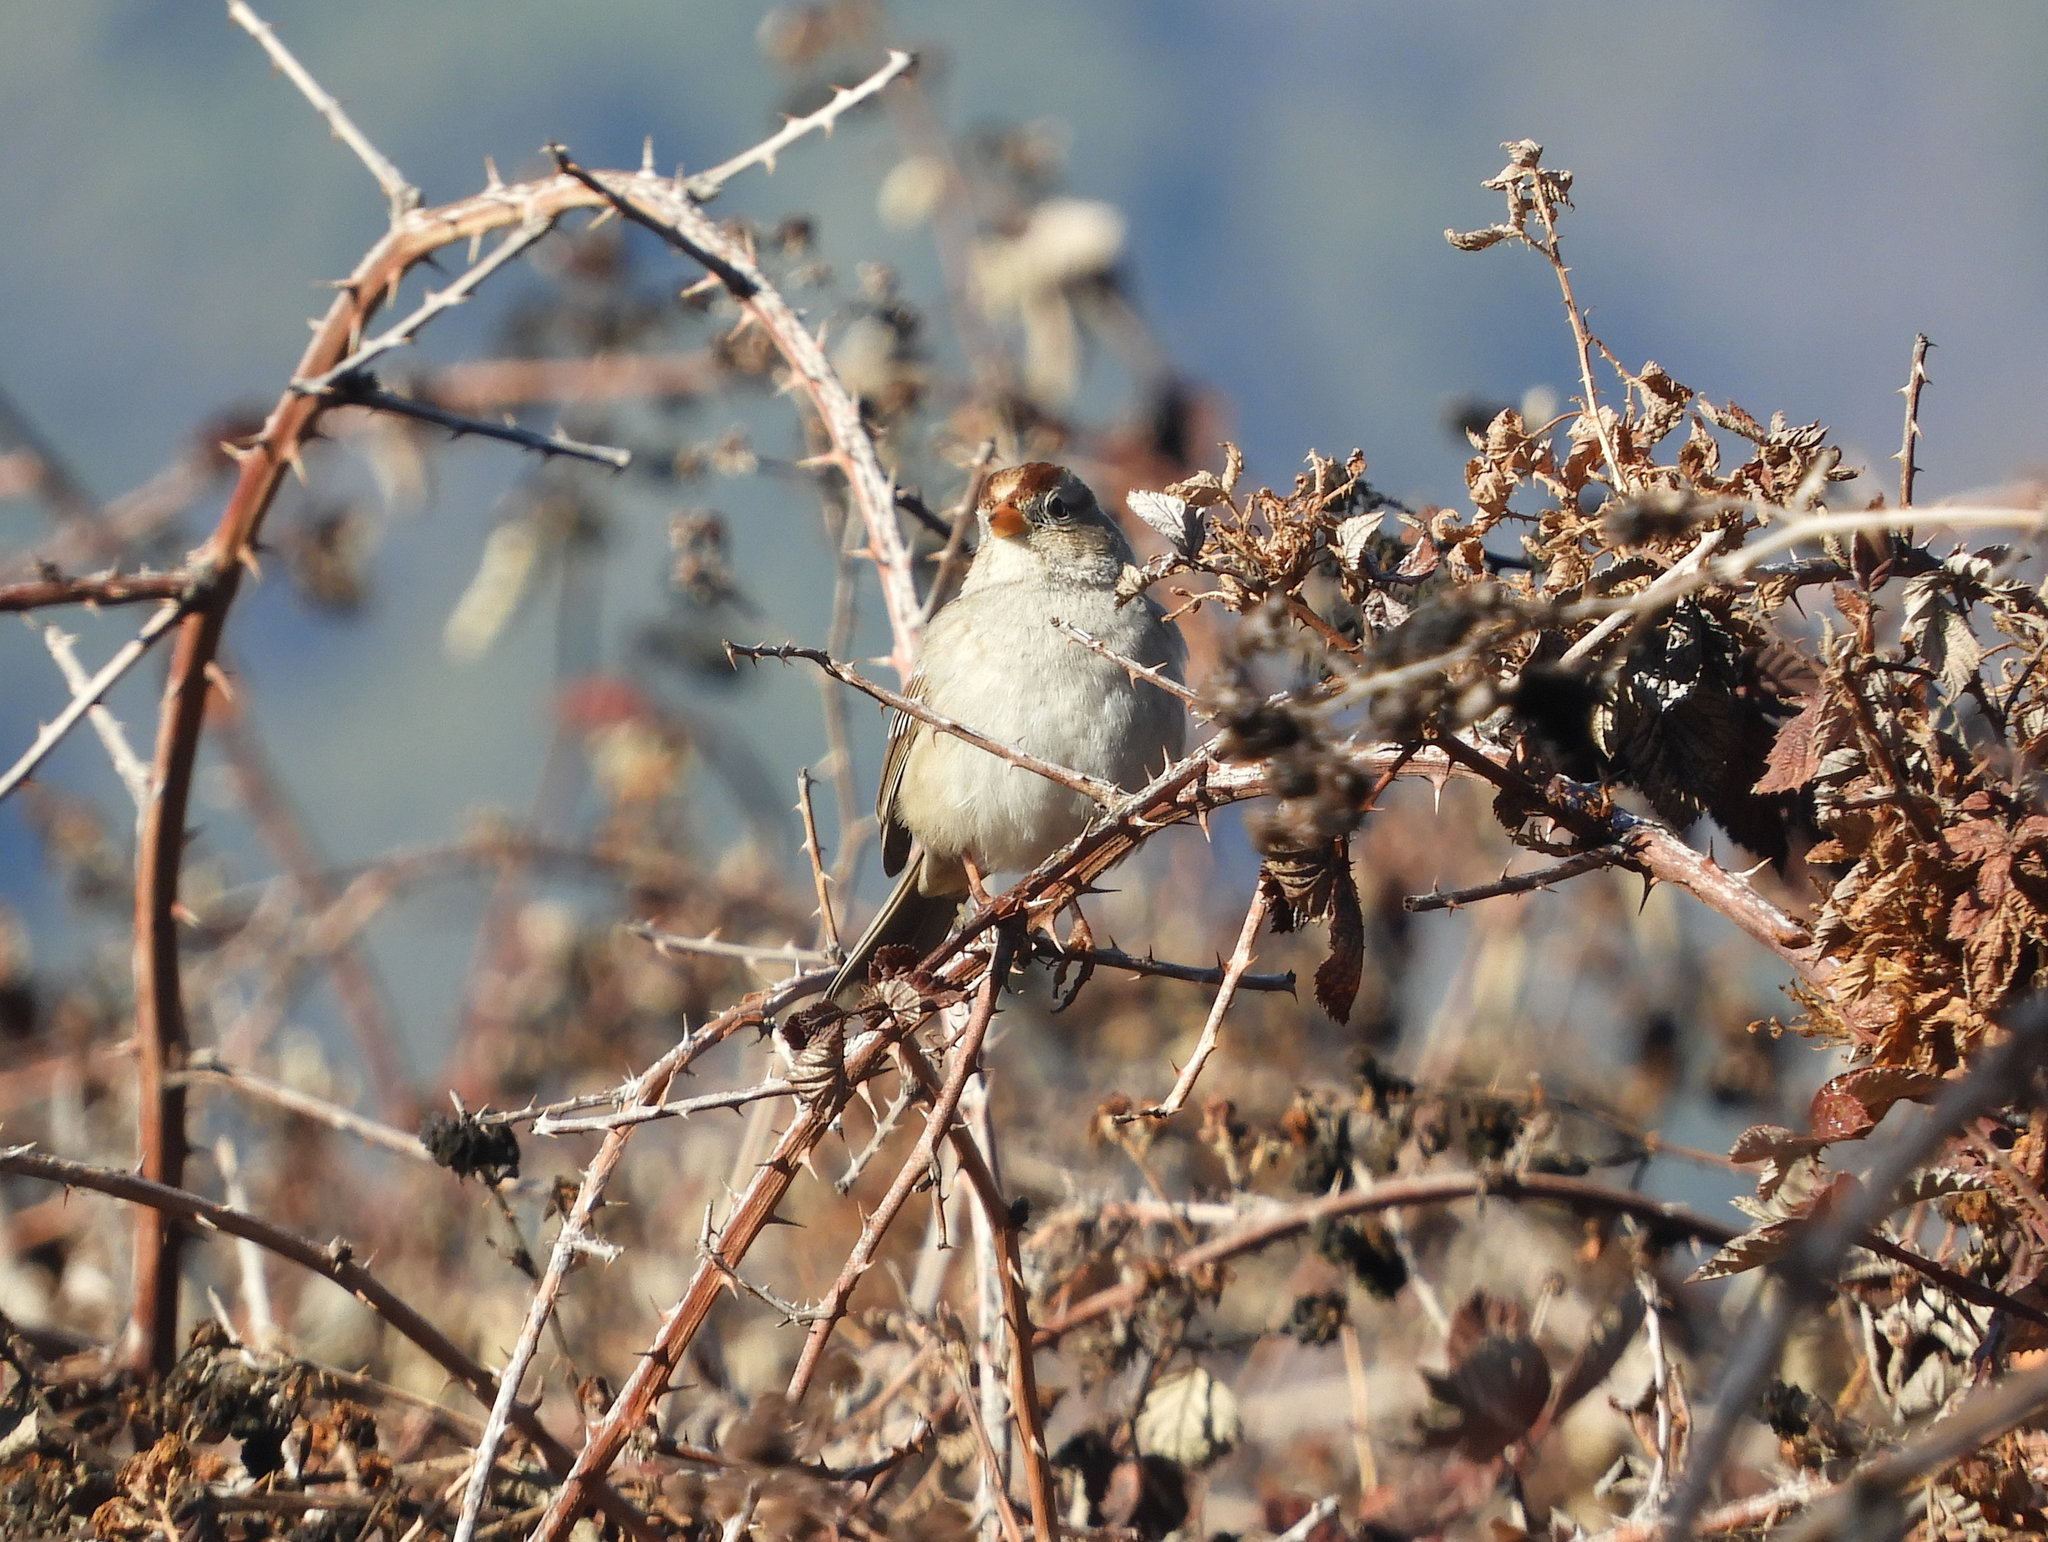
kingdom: Animalia
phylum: Chordata
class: Aves
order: Passeriformes
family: Passerellidae
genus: Zonotrichia
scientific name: Zonotrichia leucophrys
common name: White-crowned sparrow
